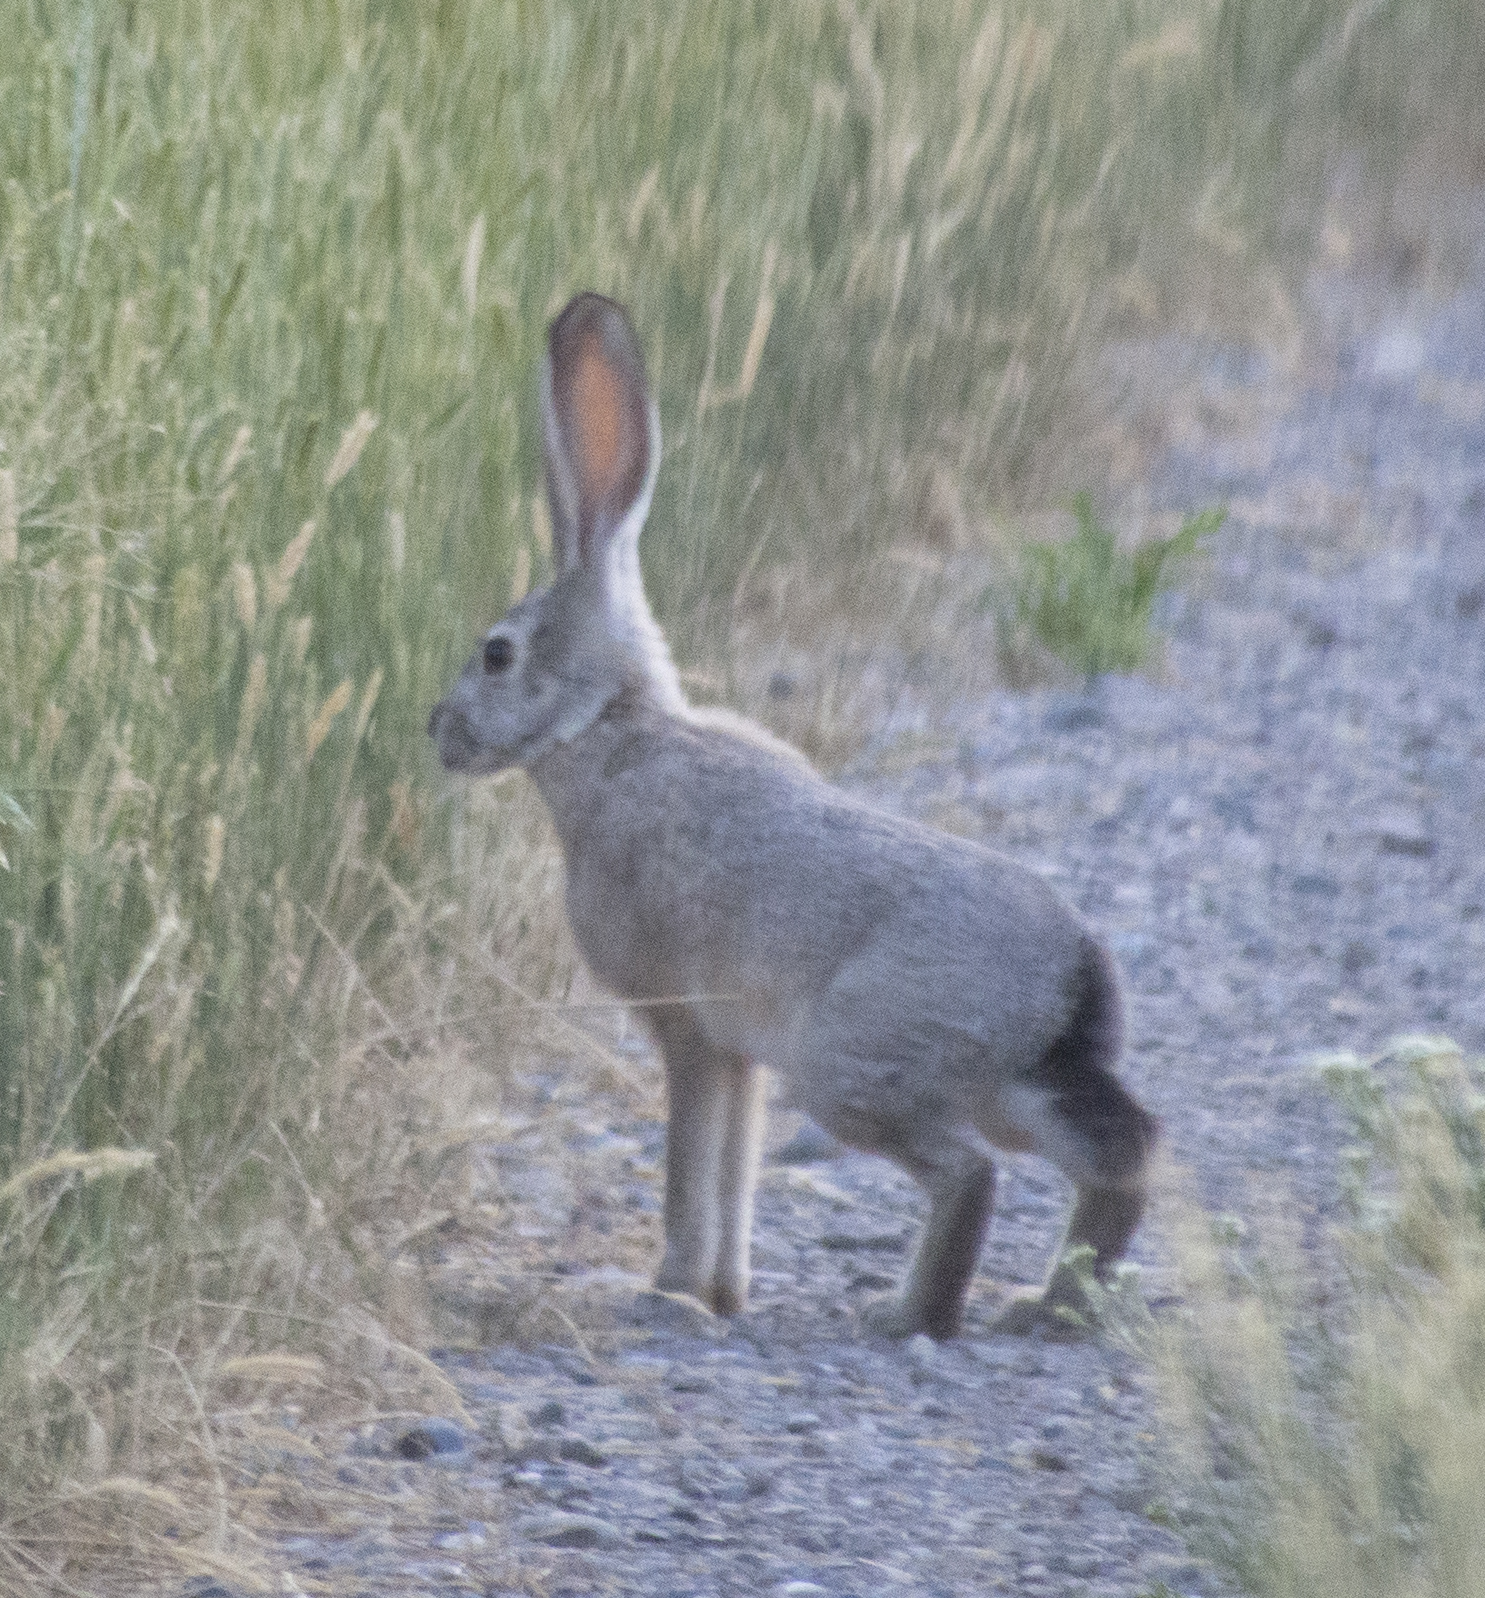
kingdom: Animalia
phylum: Chordata
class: Mammalia
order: Lagomorpha
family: Leporidae
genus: Lepus
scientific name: Lepus californicus
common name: Black-tailed jackrabbit
